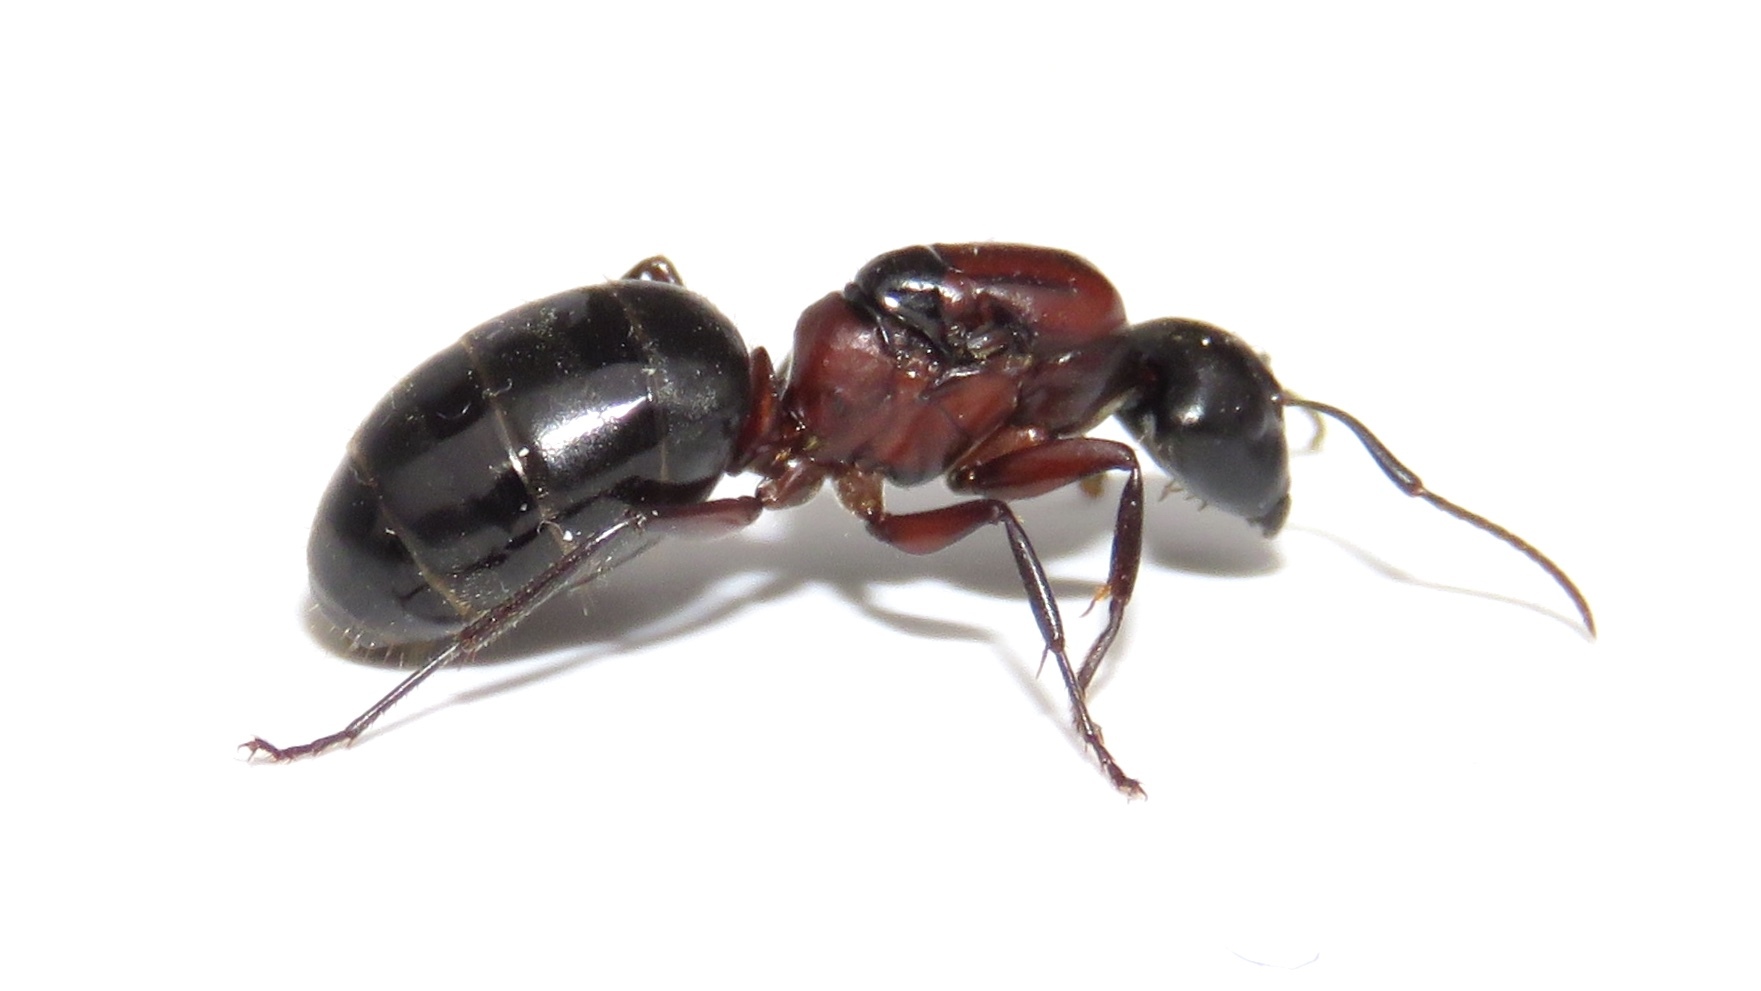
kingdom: Animalia
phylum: Arthropoda
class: Insecta
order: Hymenoptera
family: Formicidae
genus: Camponotus
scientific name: Camponotus novaeboracensis
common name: New york carpenter ant
